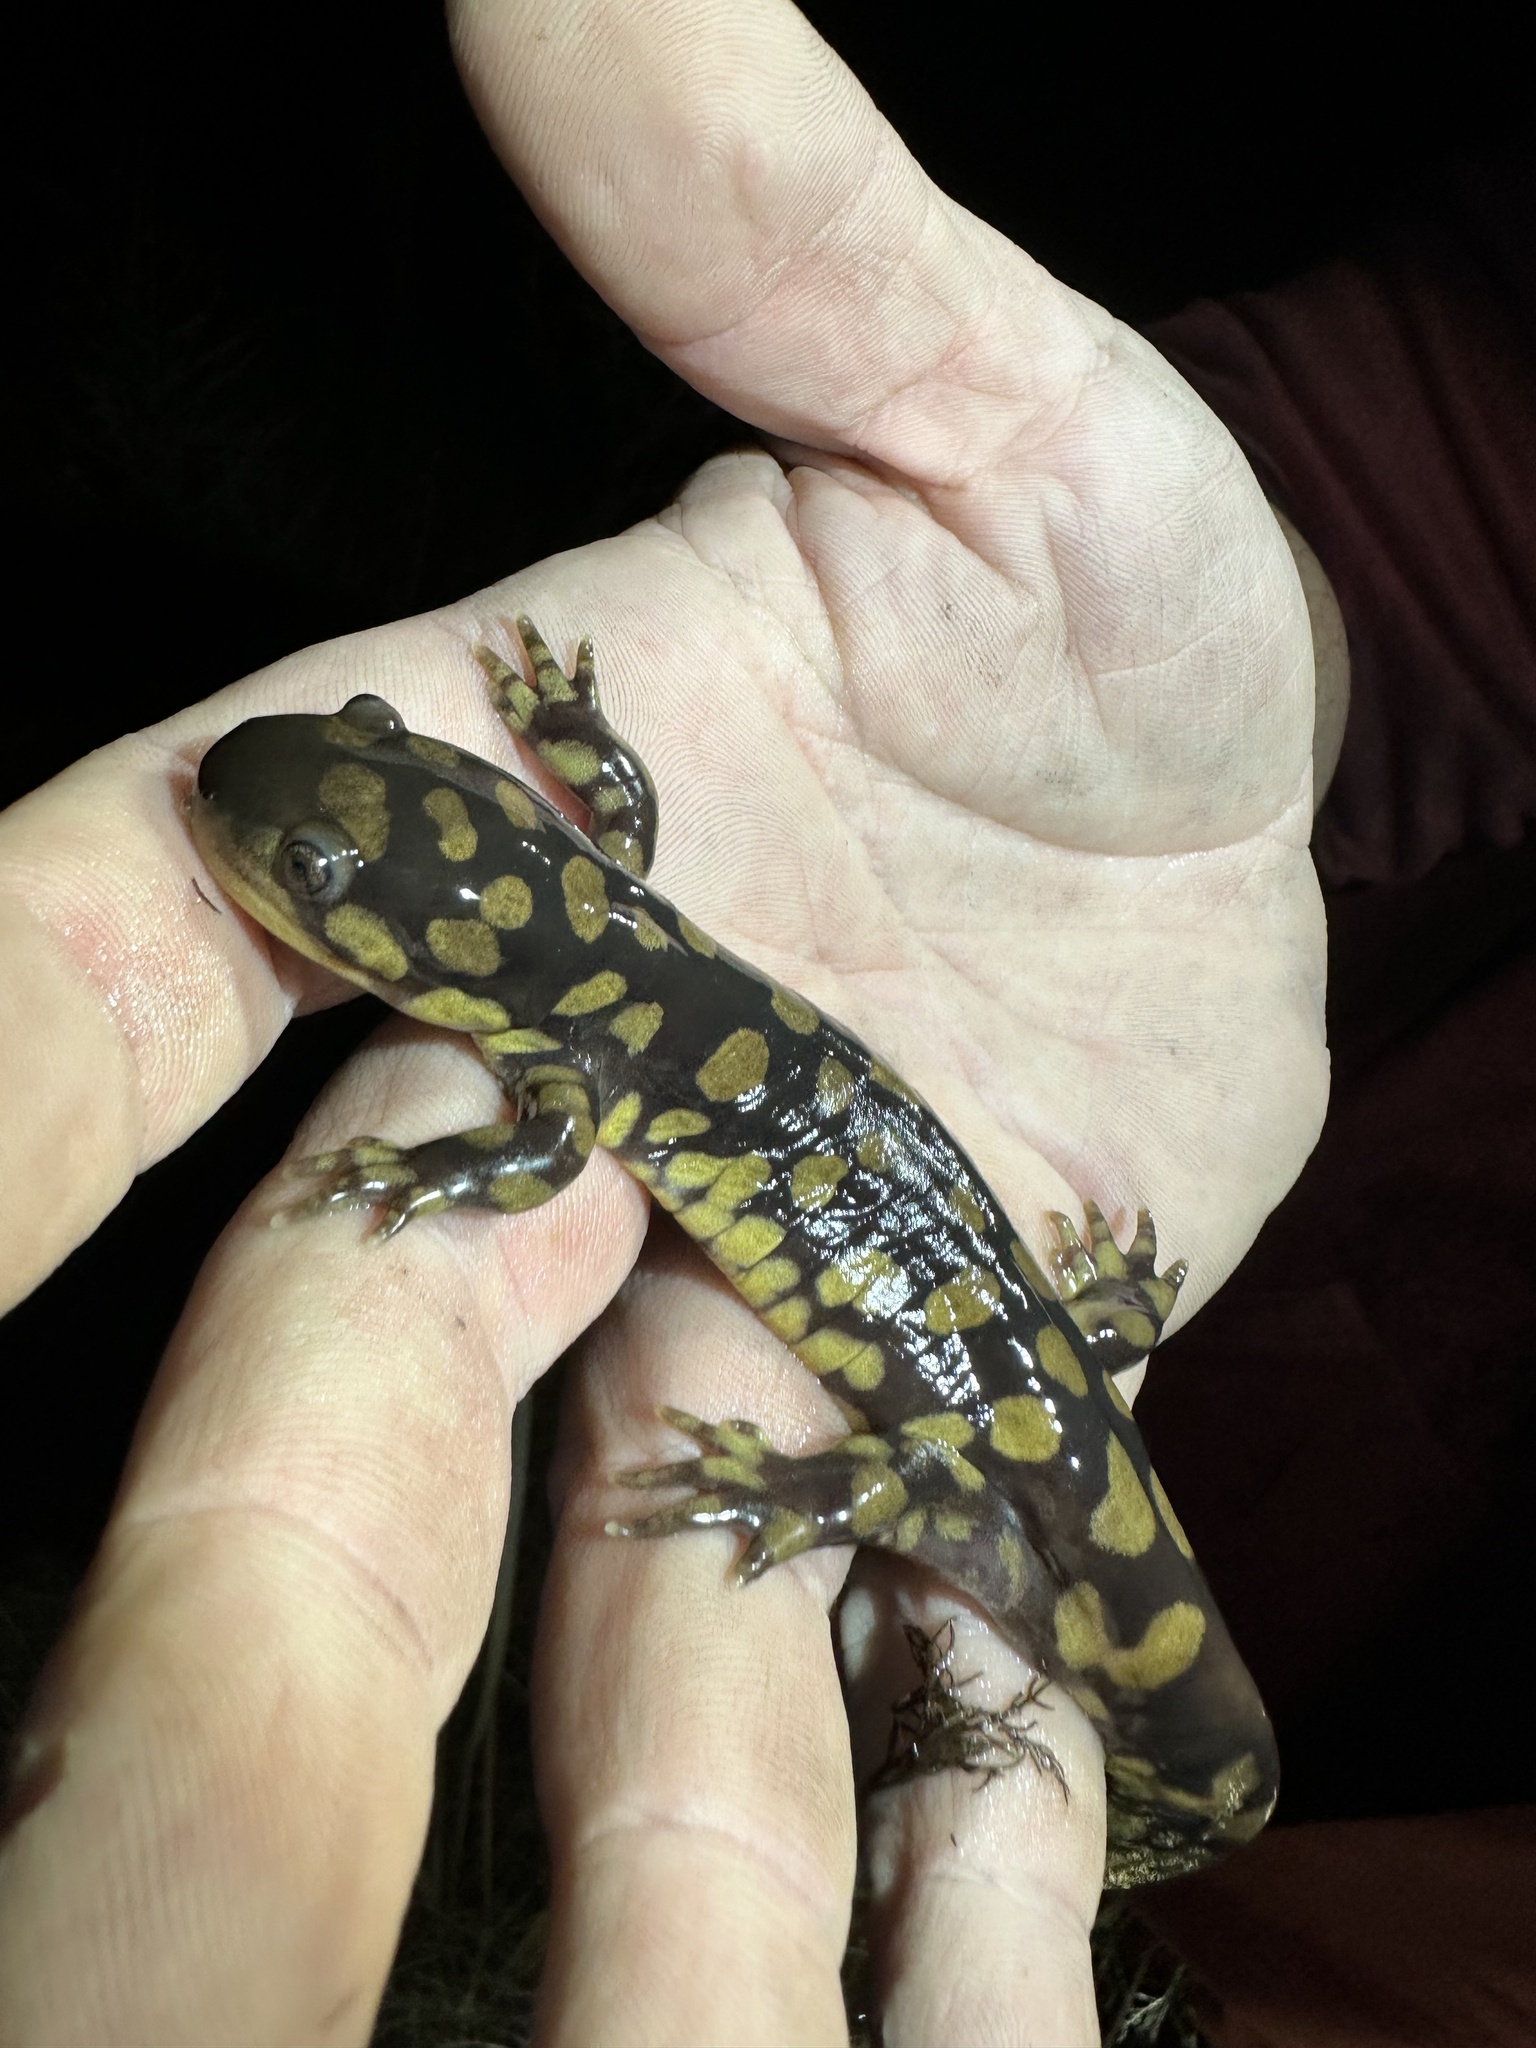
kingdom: Animalia
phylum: Chordata
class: Amphibia
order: Caudata
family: Ambystomatidae
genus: Ambystoma
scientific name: Ambystoma tigrinum
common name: Tiger salamander
